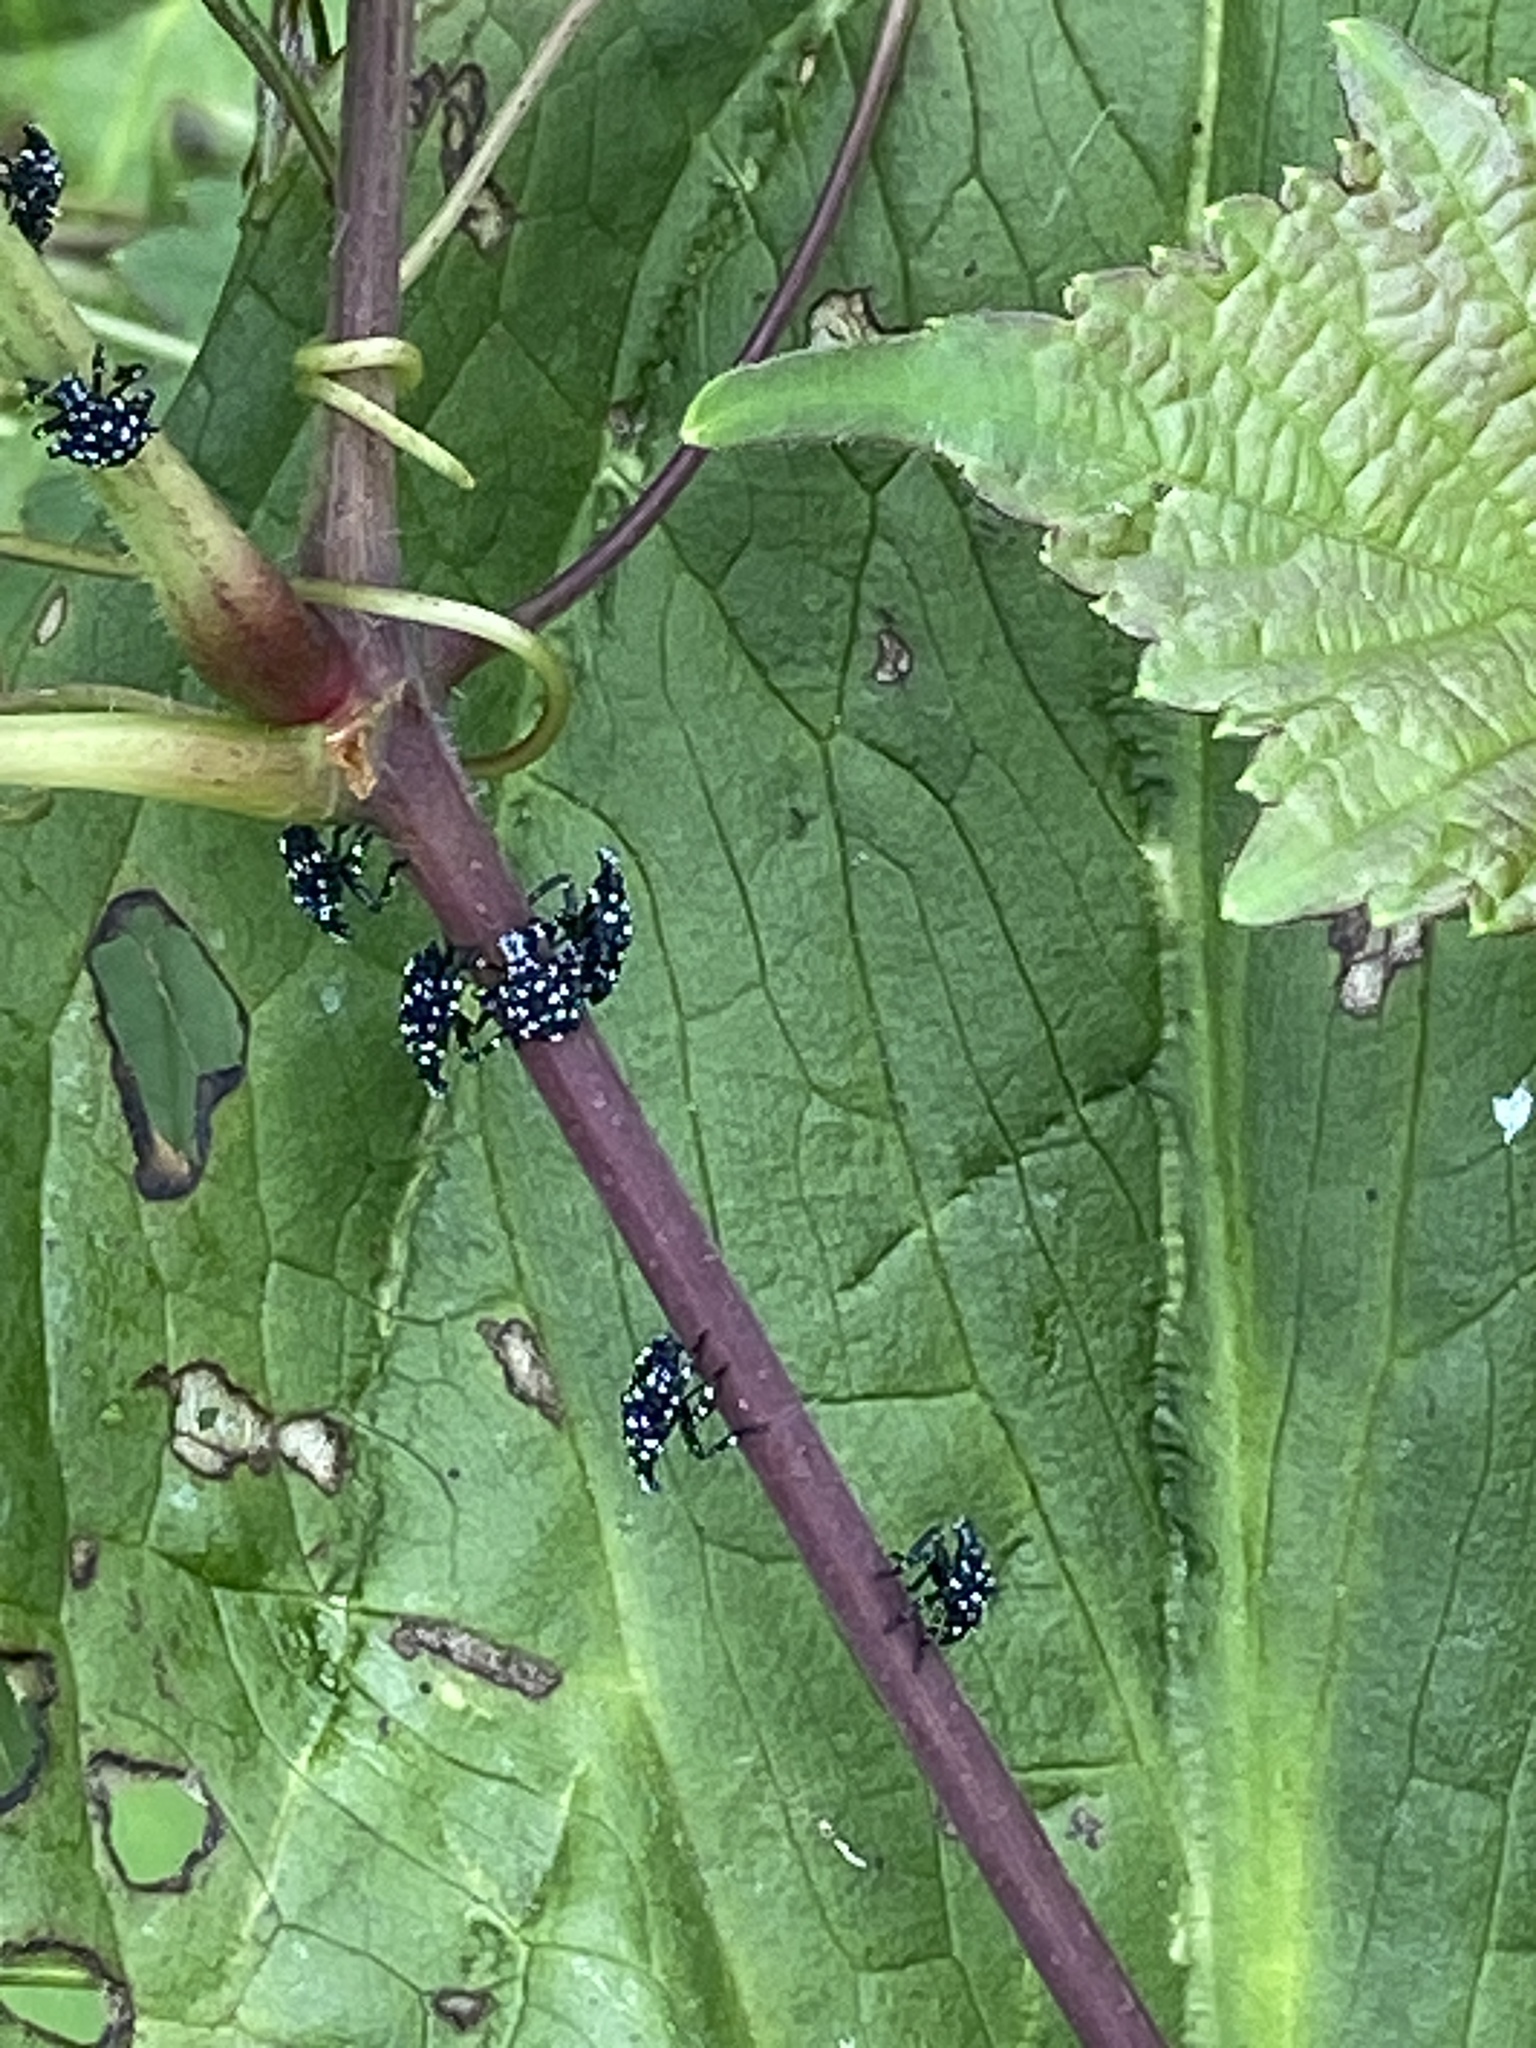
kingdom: Animalia
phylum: Arthropoda
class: Insecta
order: Hemiptera
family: Fulgoridae
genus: Lycorma
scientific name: Lycorma delicatula
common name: Spotted lanternfly
